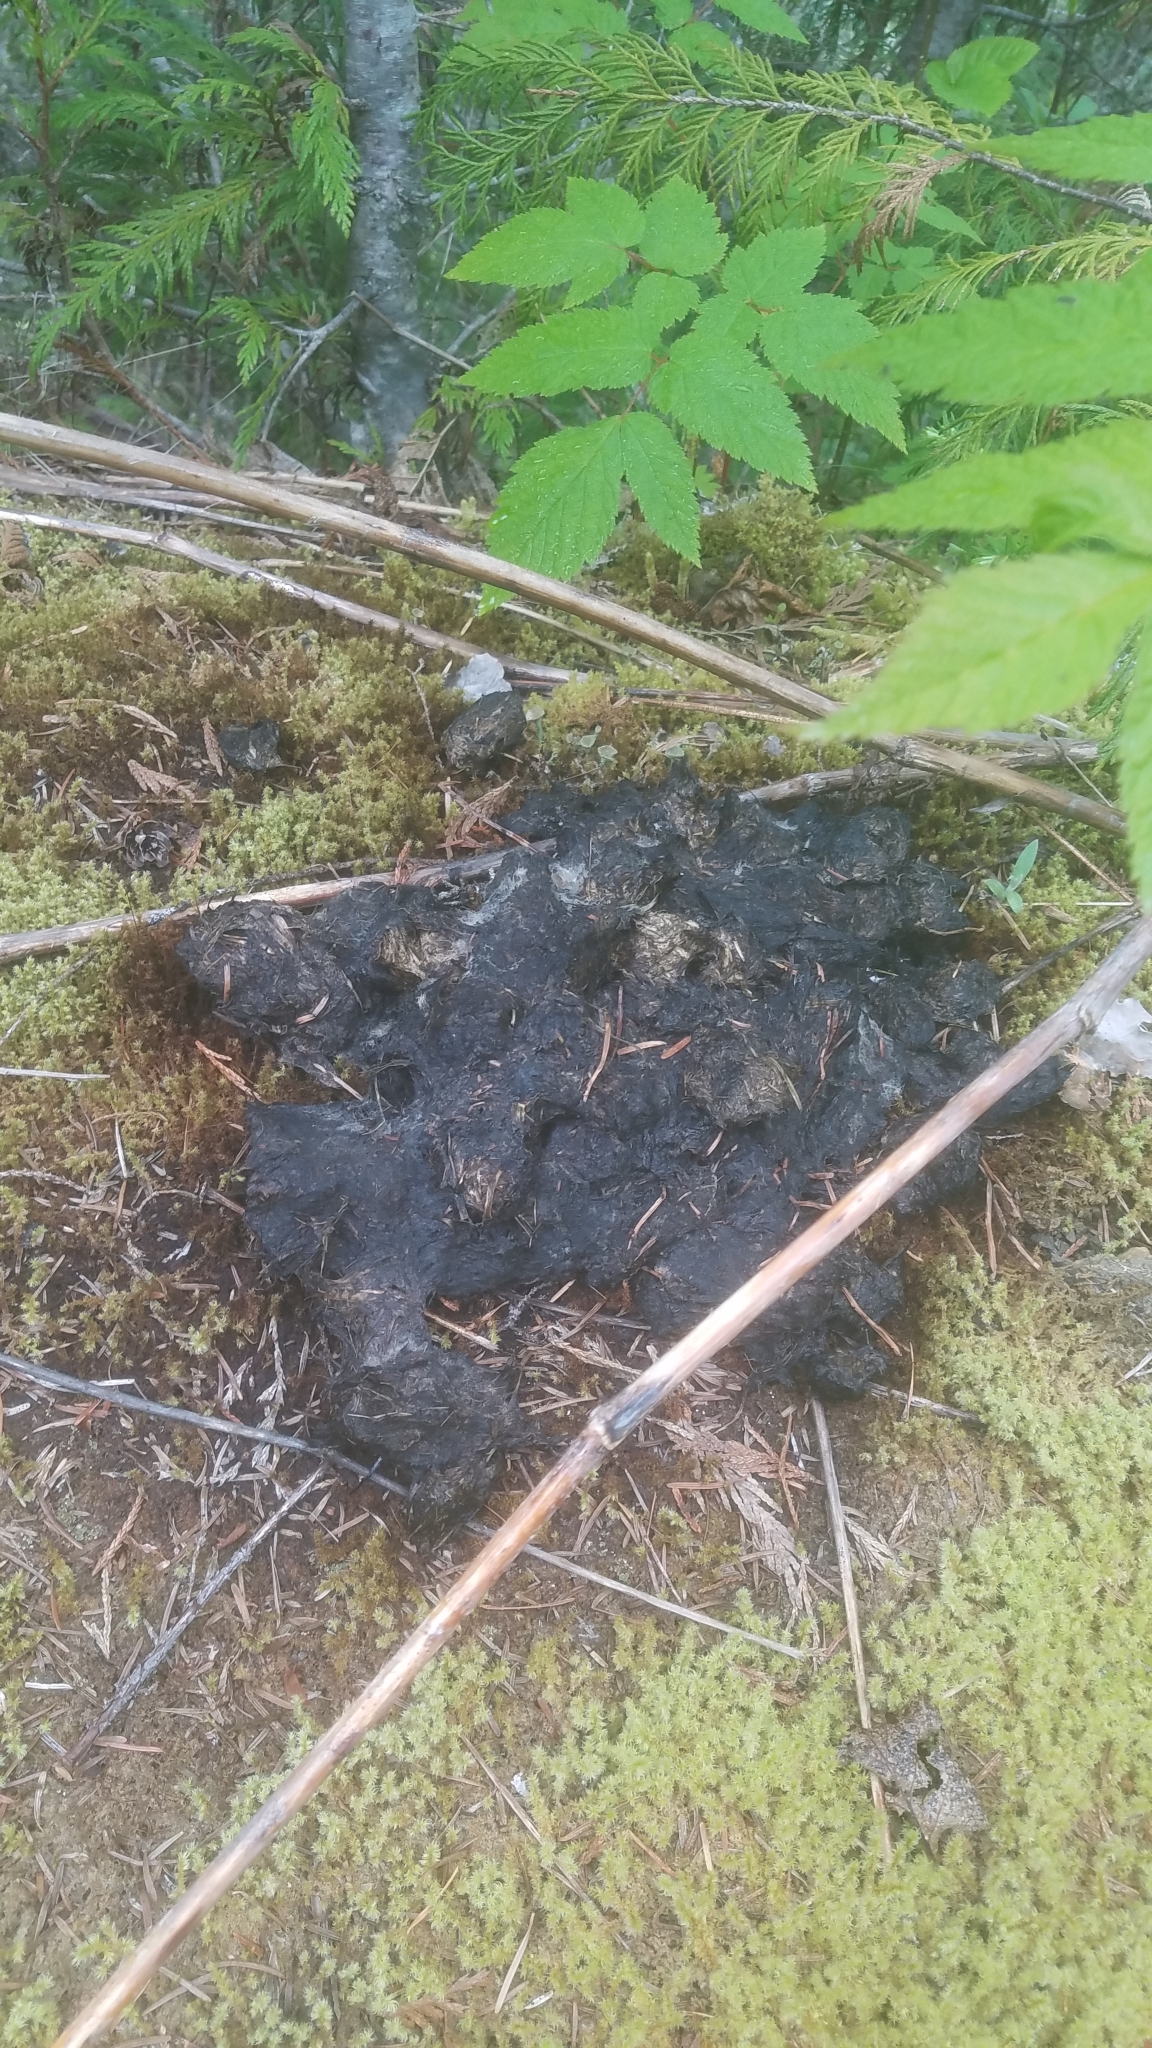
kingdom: Animalia
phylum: Chordata
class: Mammalia
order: Carnivora
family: Ursidae
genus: Ursus
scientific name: Ursus americanus
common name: American black bear
